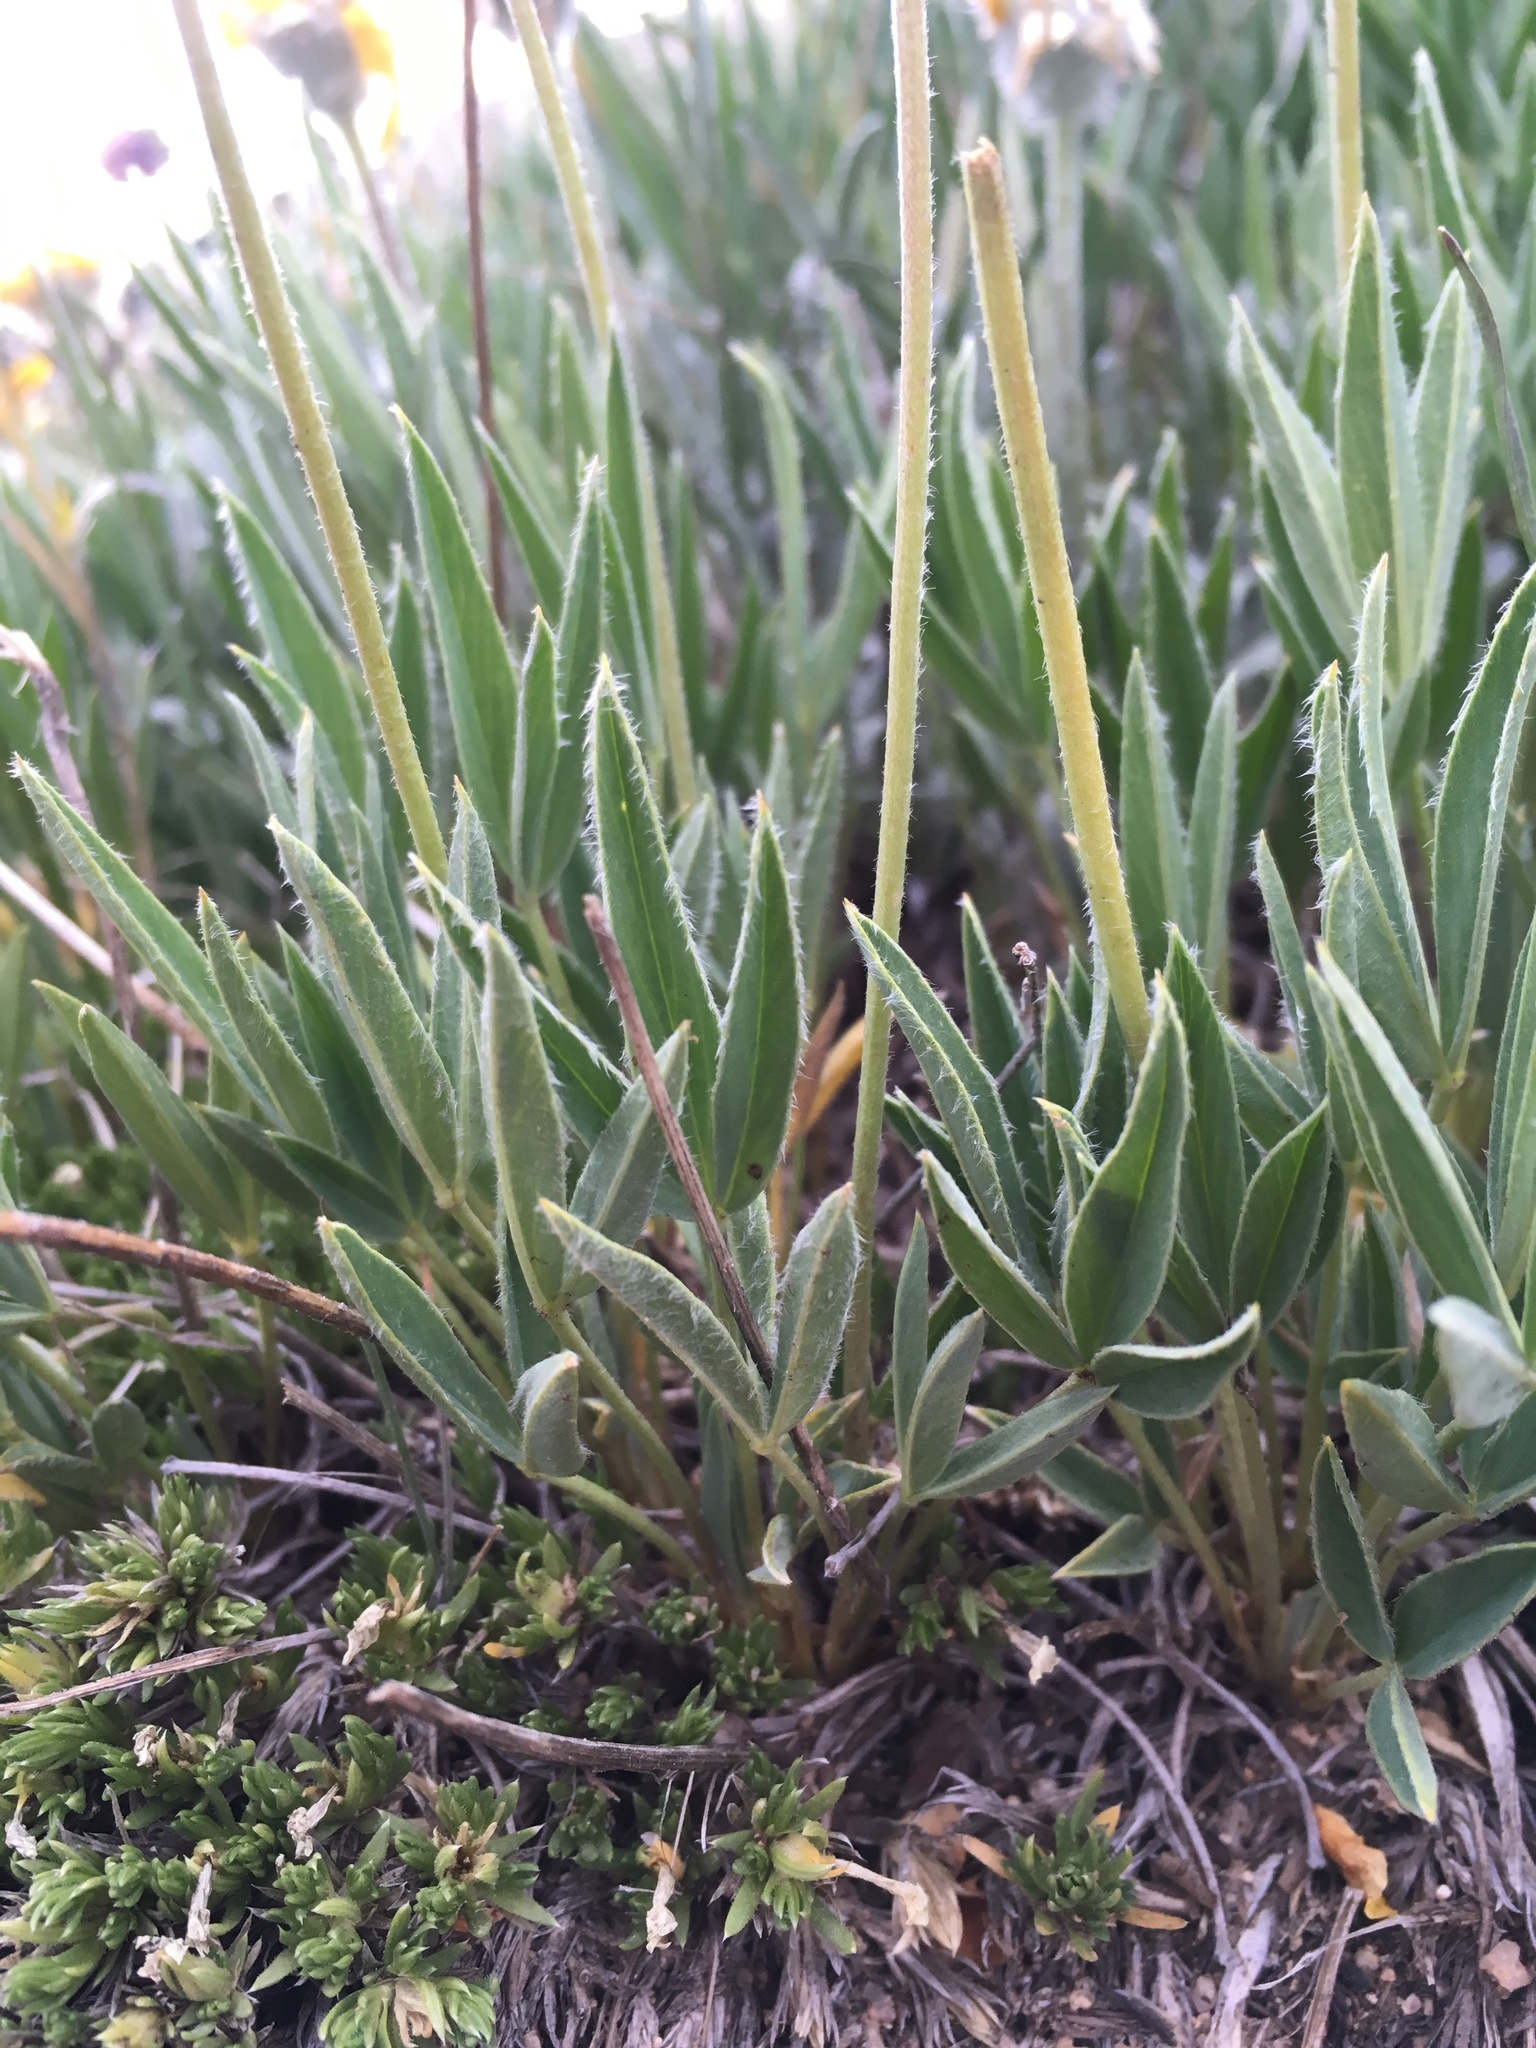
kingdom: Plantae
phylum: Tracheophyta
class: Magnoliopsida
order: Fabales
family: Fabaceae
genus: Trifolium
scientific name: Trifolium attenuatum
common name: Rocky mountain clover
